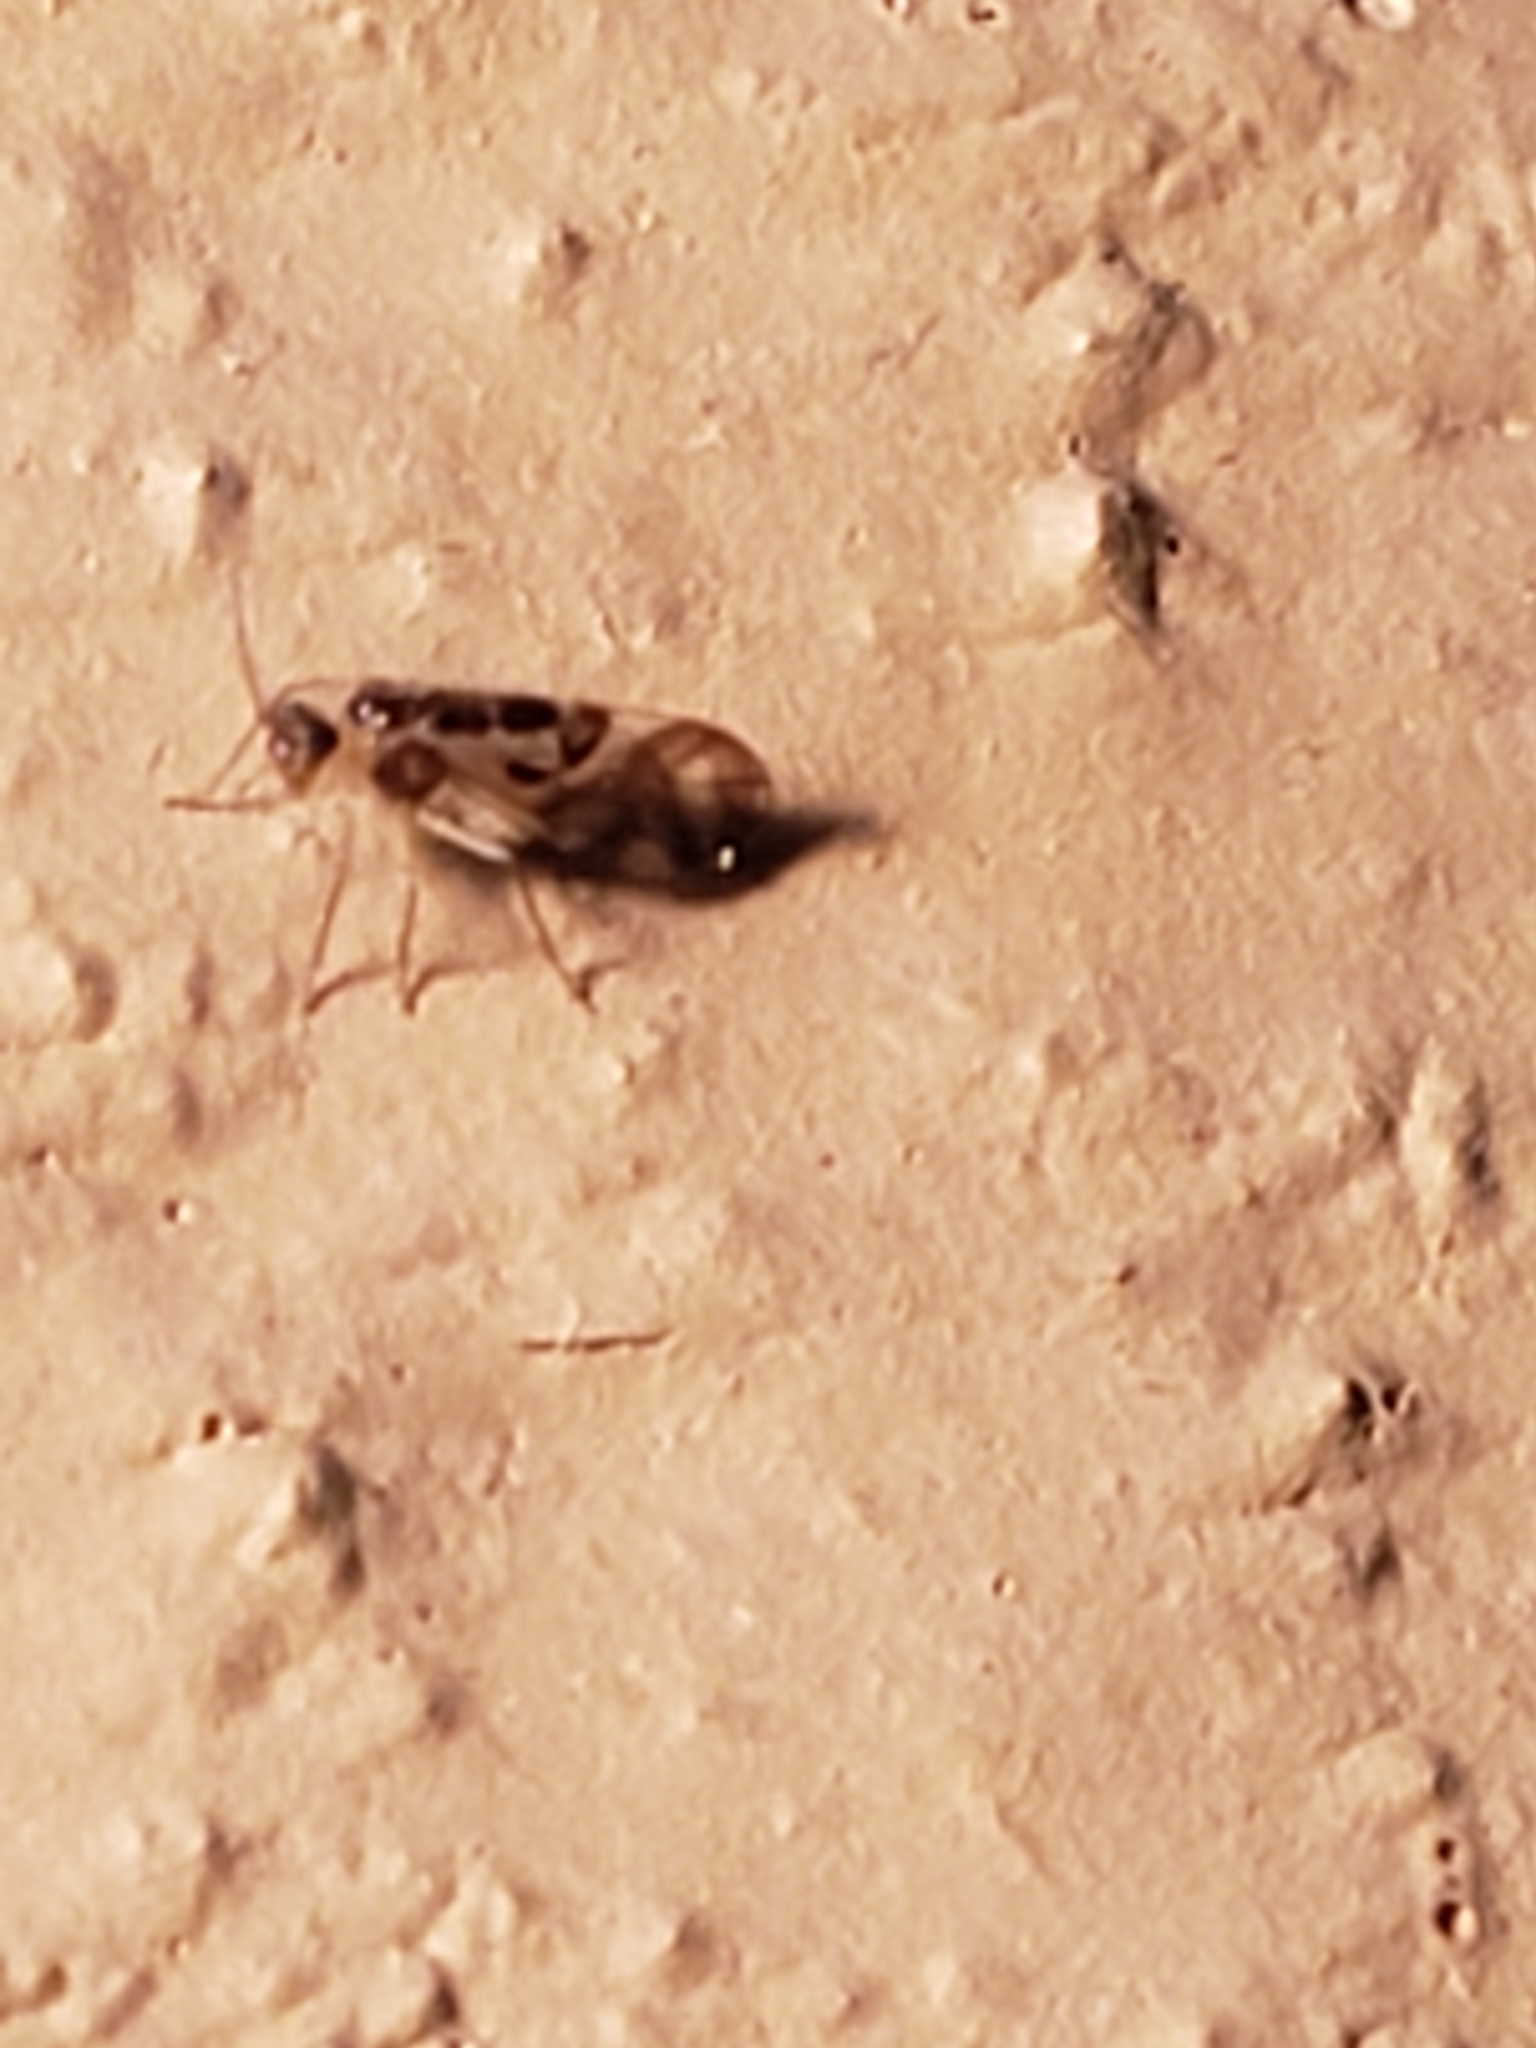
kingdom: Animalia
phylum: Arthropoda
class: Insecta
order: Psocodea
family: Stenopsocidae
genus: Graphopsocus
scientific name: Graphopsocus cruciatus
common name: Lizard bark louse
